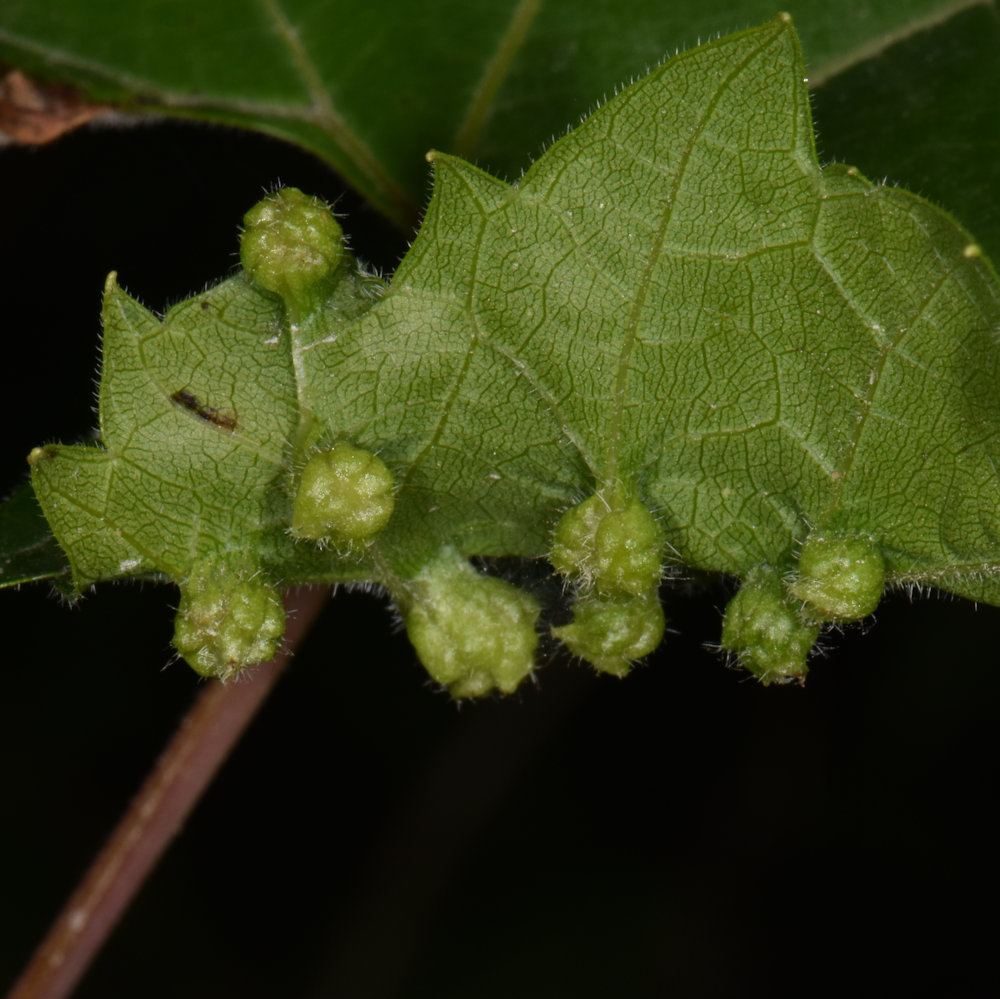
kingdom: Animalia
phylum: Arthropoda
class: Insecta
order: Hemiptera
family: Phylloxeridae
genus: Daktulosphaira
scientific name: Daktulosphaira vitifoliae
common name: Grape phylloxera
